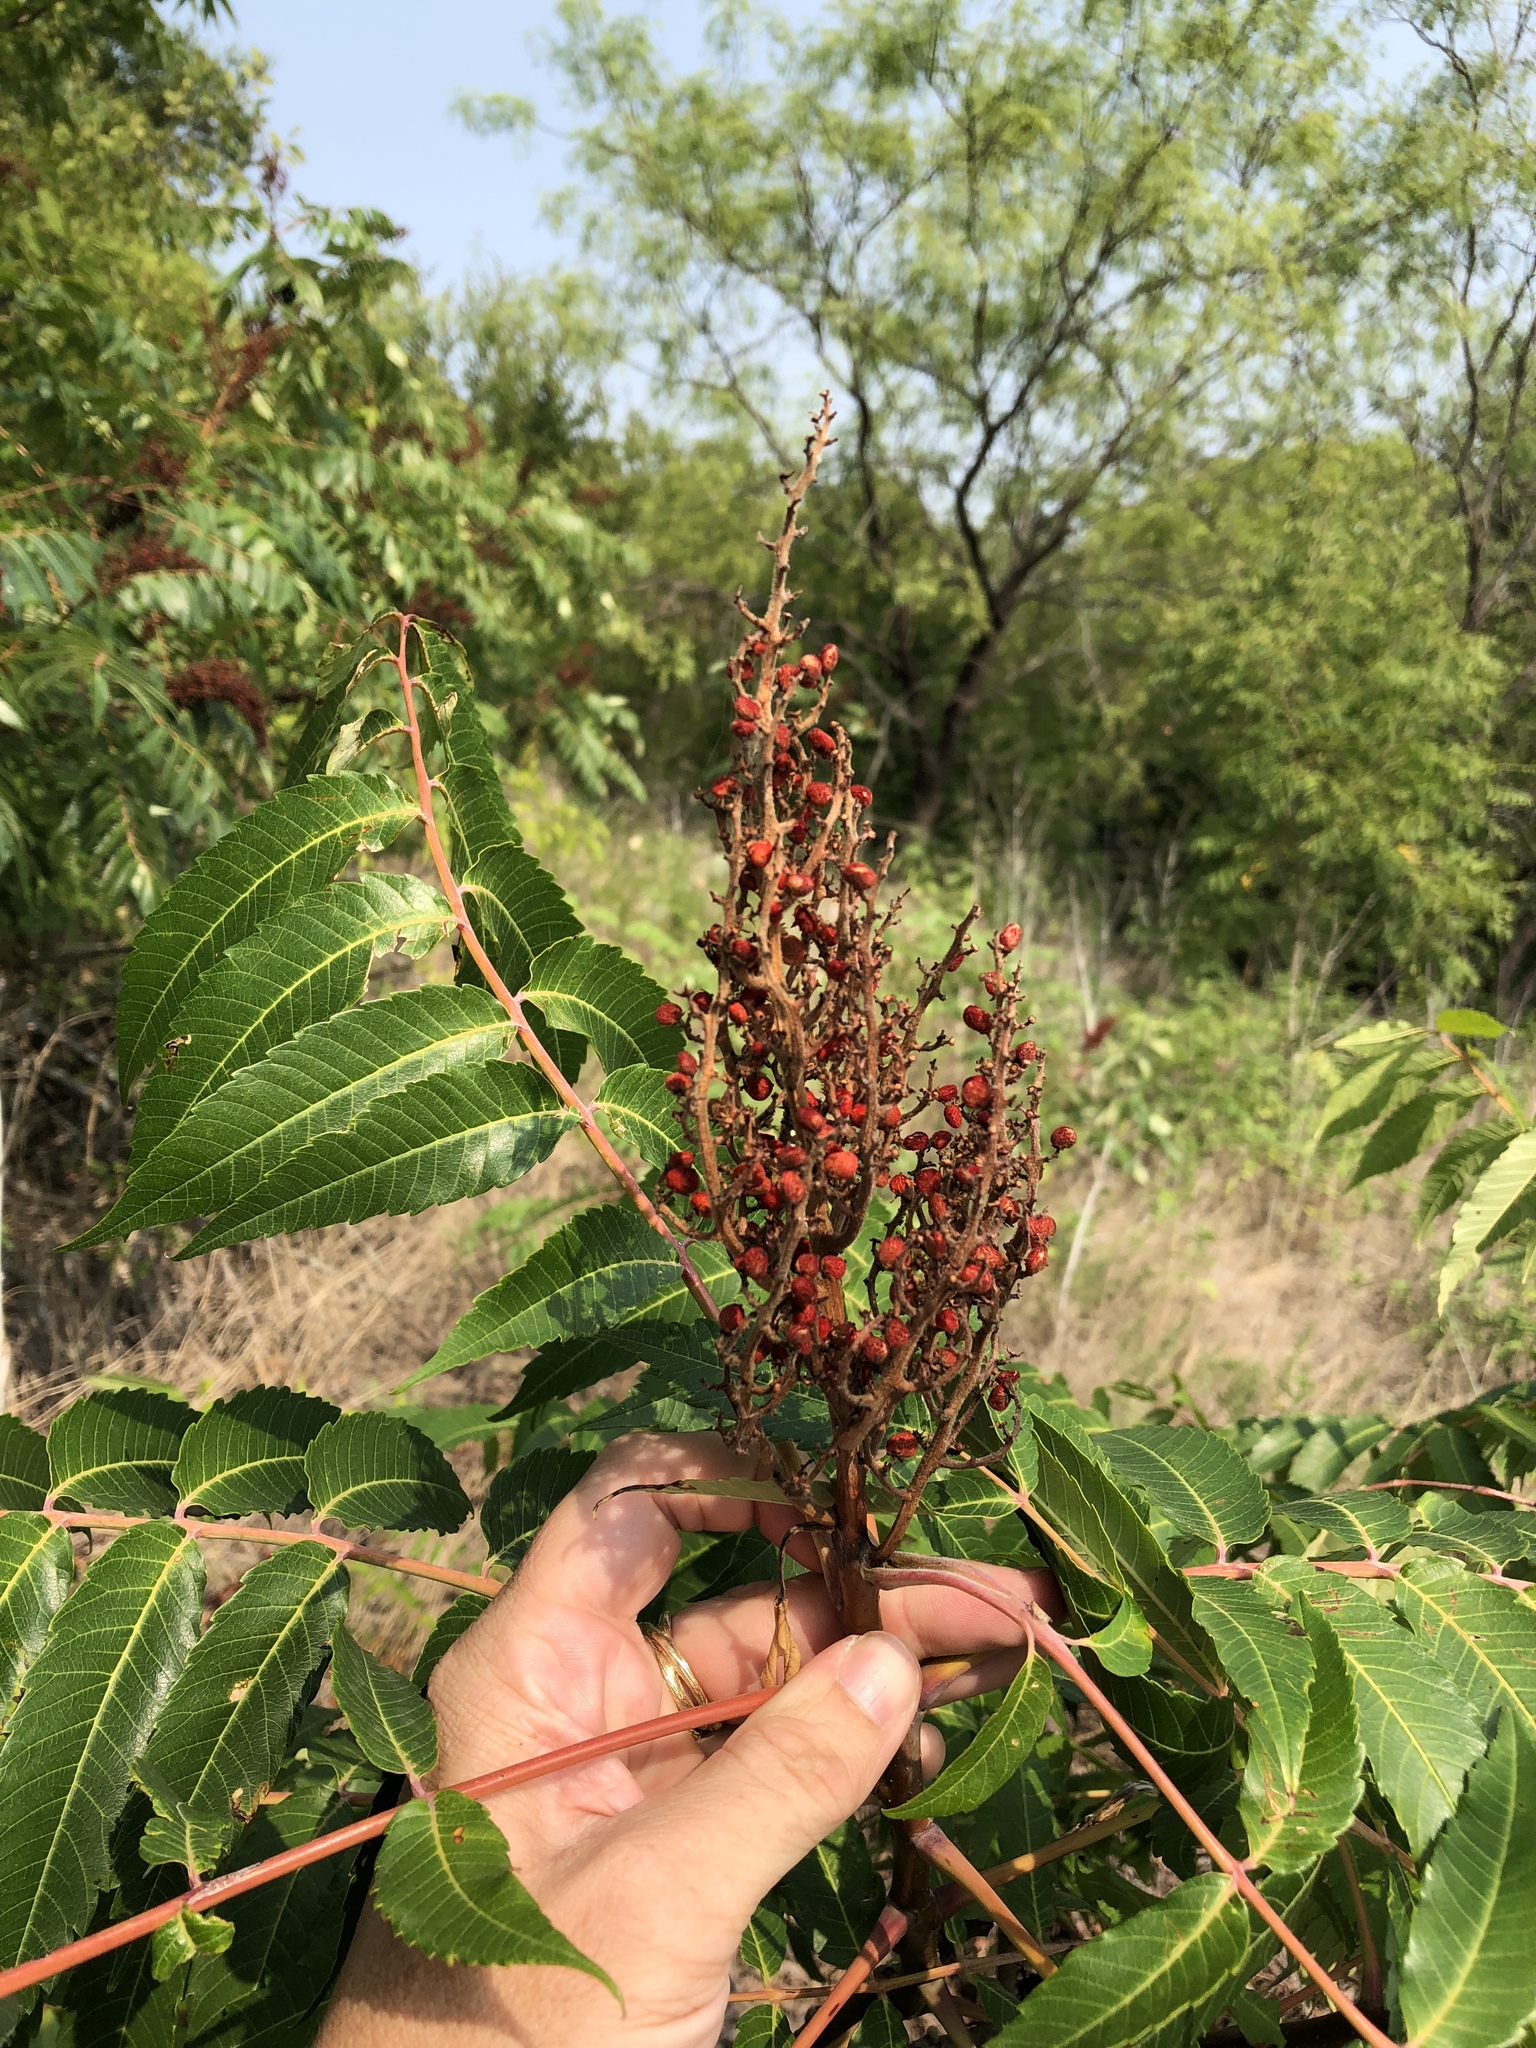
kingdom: Plantae
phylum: Tracheophyta
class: Magnoliopsida
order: Sapindales
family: Anacardiaceae
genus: Rhus
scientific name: Rhus glabra
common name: Scarlet sumac
